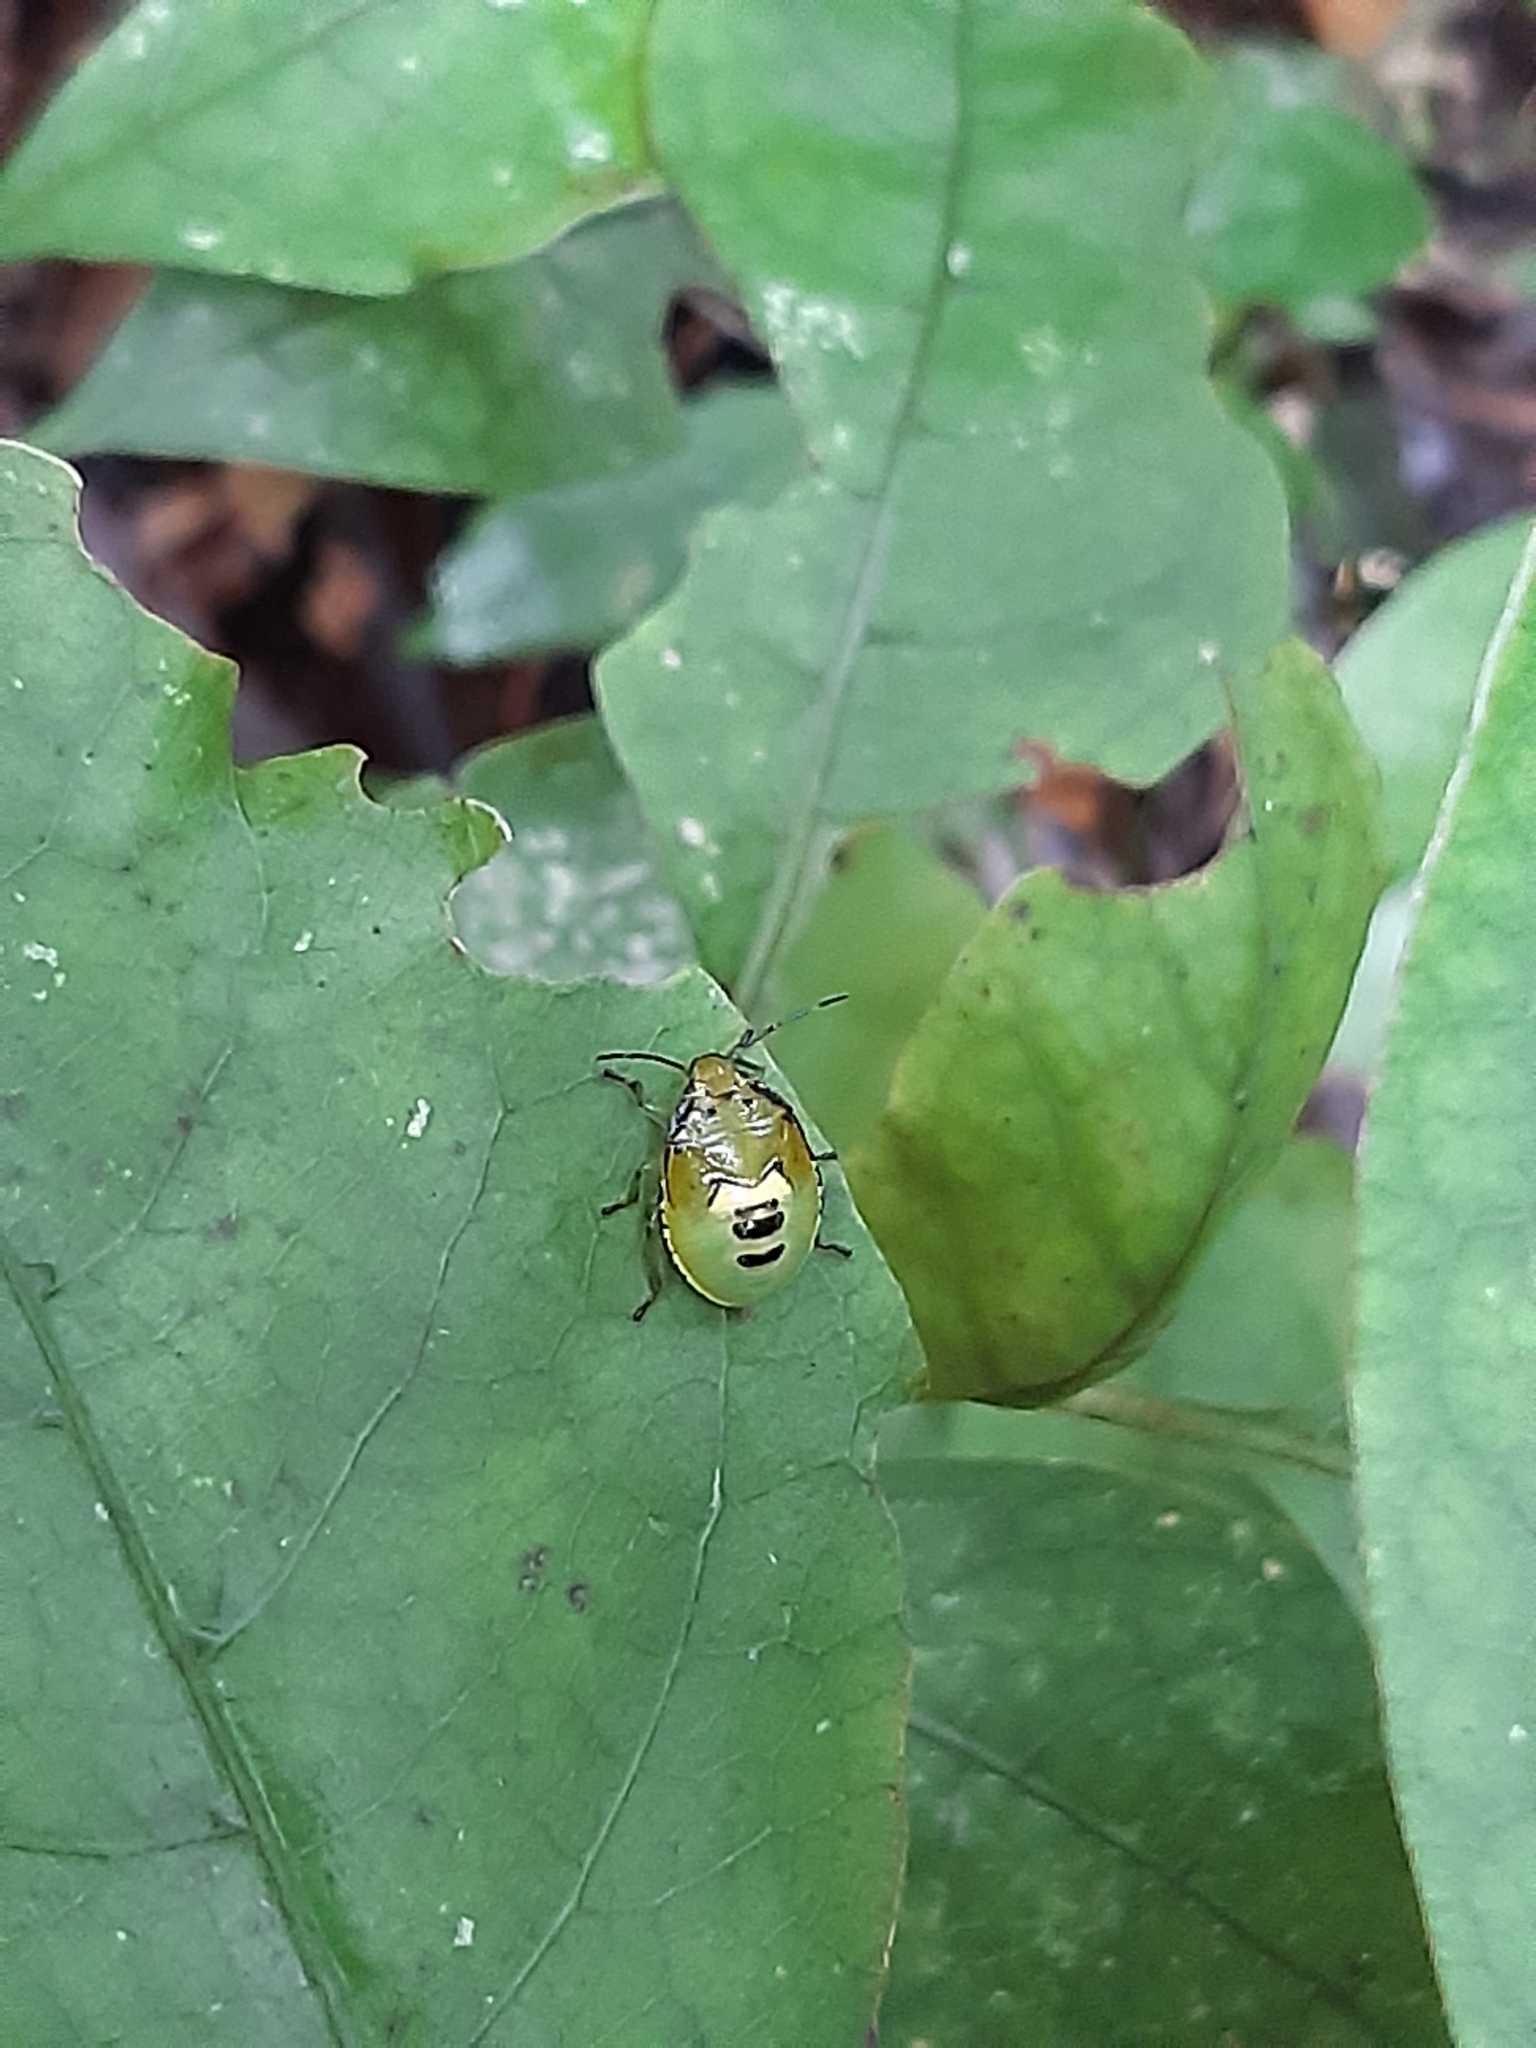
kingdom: Animalia
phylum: Arthropoda
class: Insecta
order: Hemiptera
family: Pentatomidae
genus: Glaucias
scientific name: Glaucias amyota
